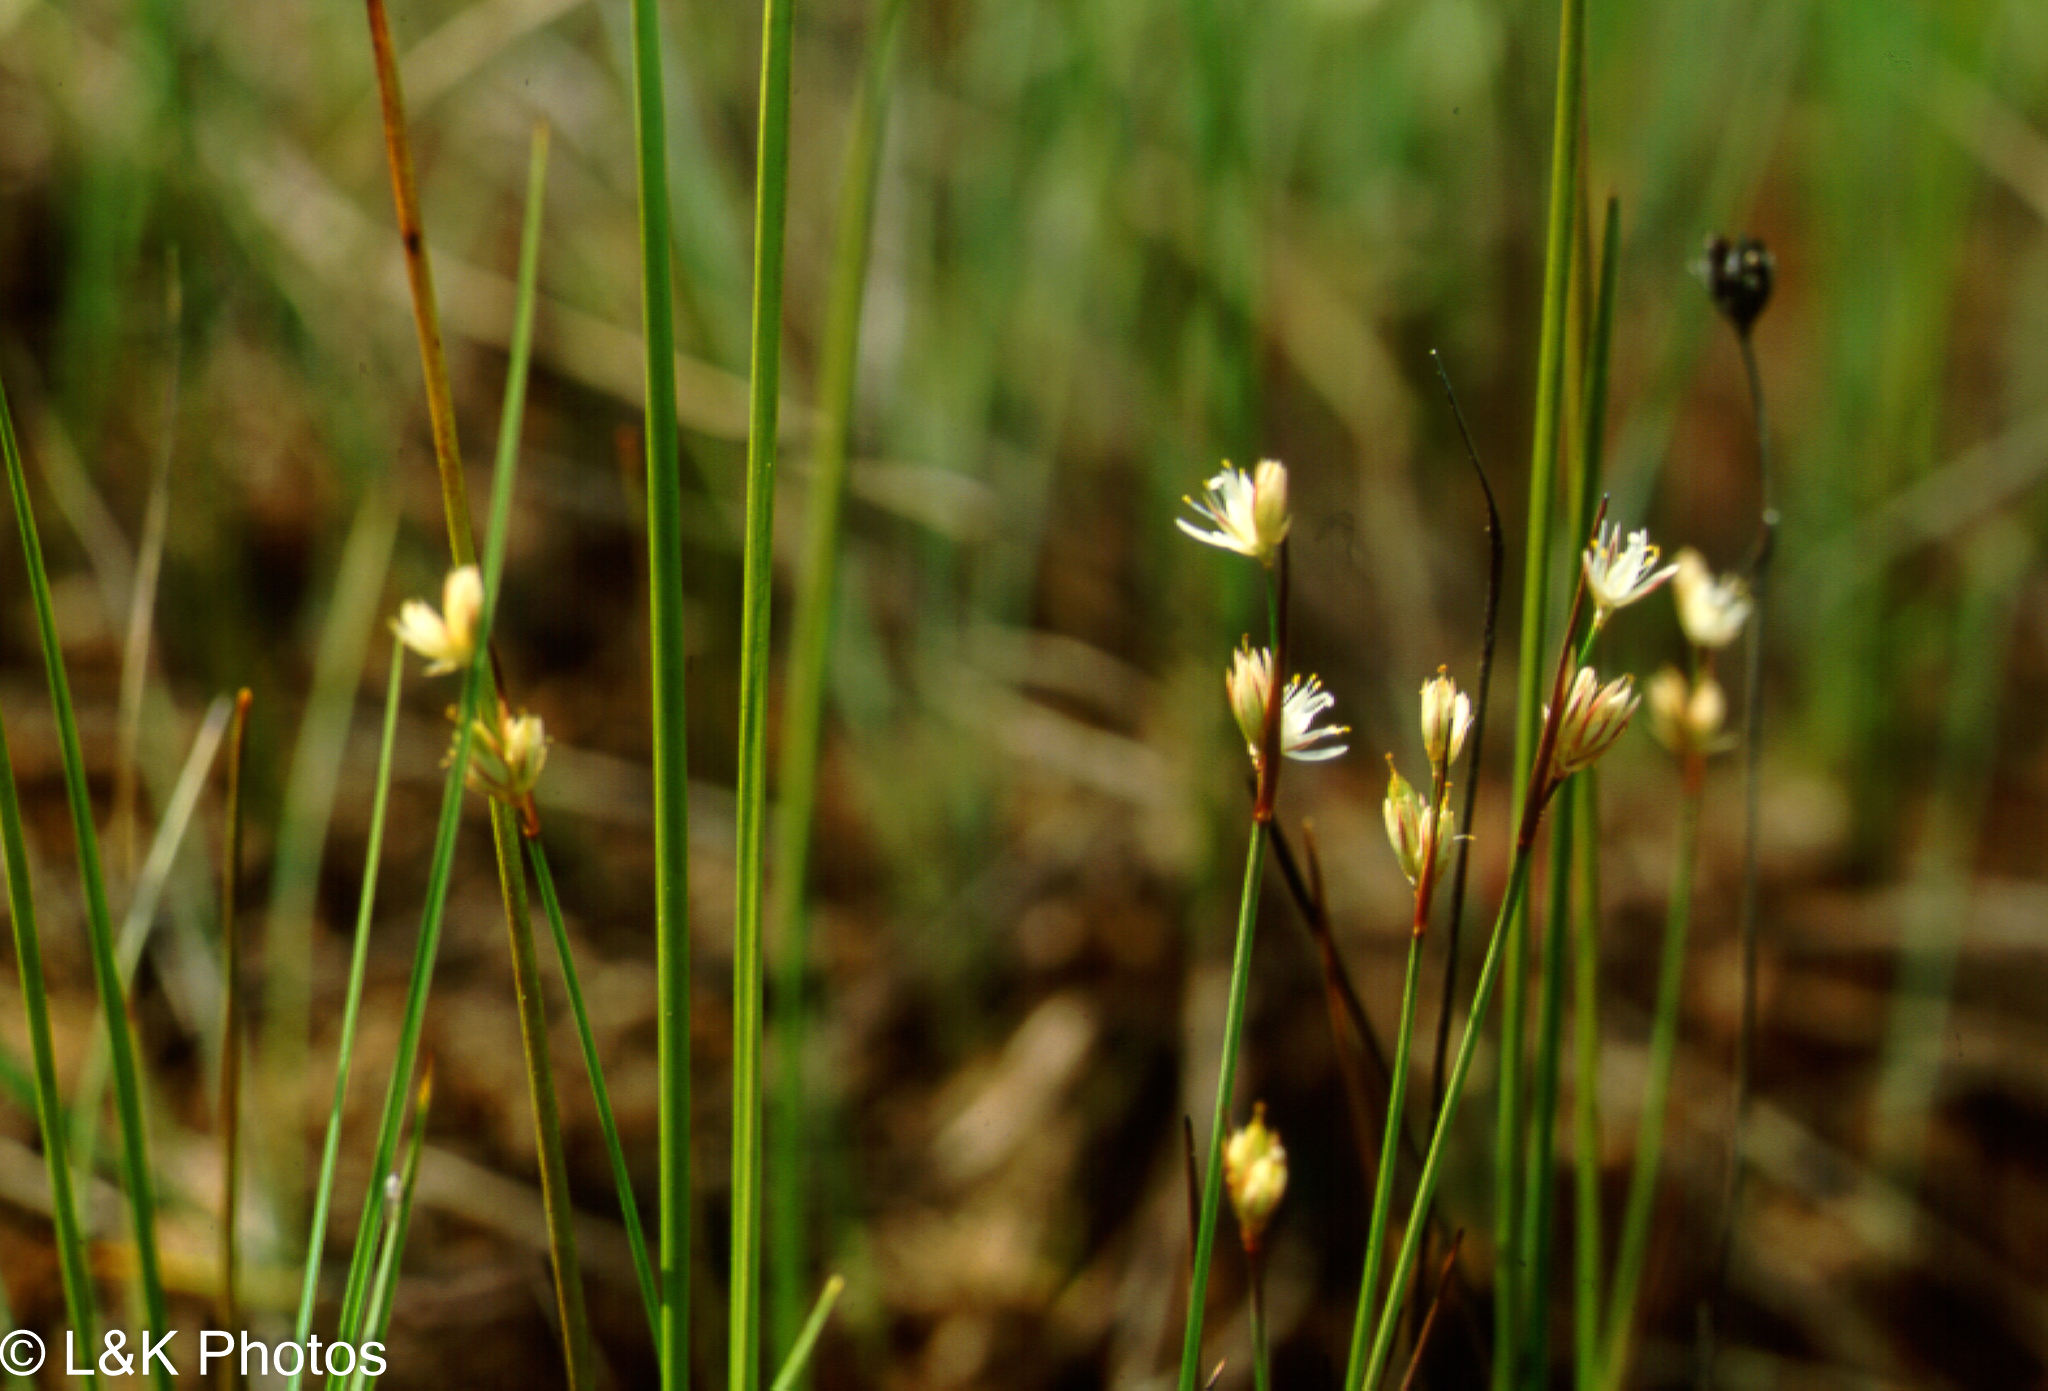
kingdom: Plantae
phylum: Tracheophyta
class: Liliopsida
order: Poales
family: Juncaceae
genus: Juncus
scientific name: Juncus stygius
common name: Bog rush
